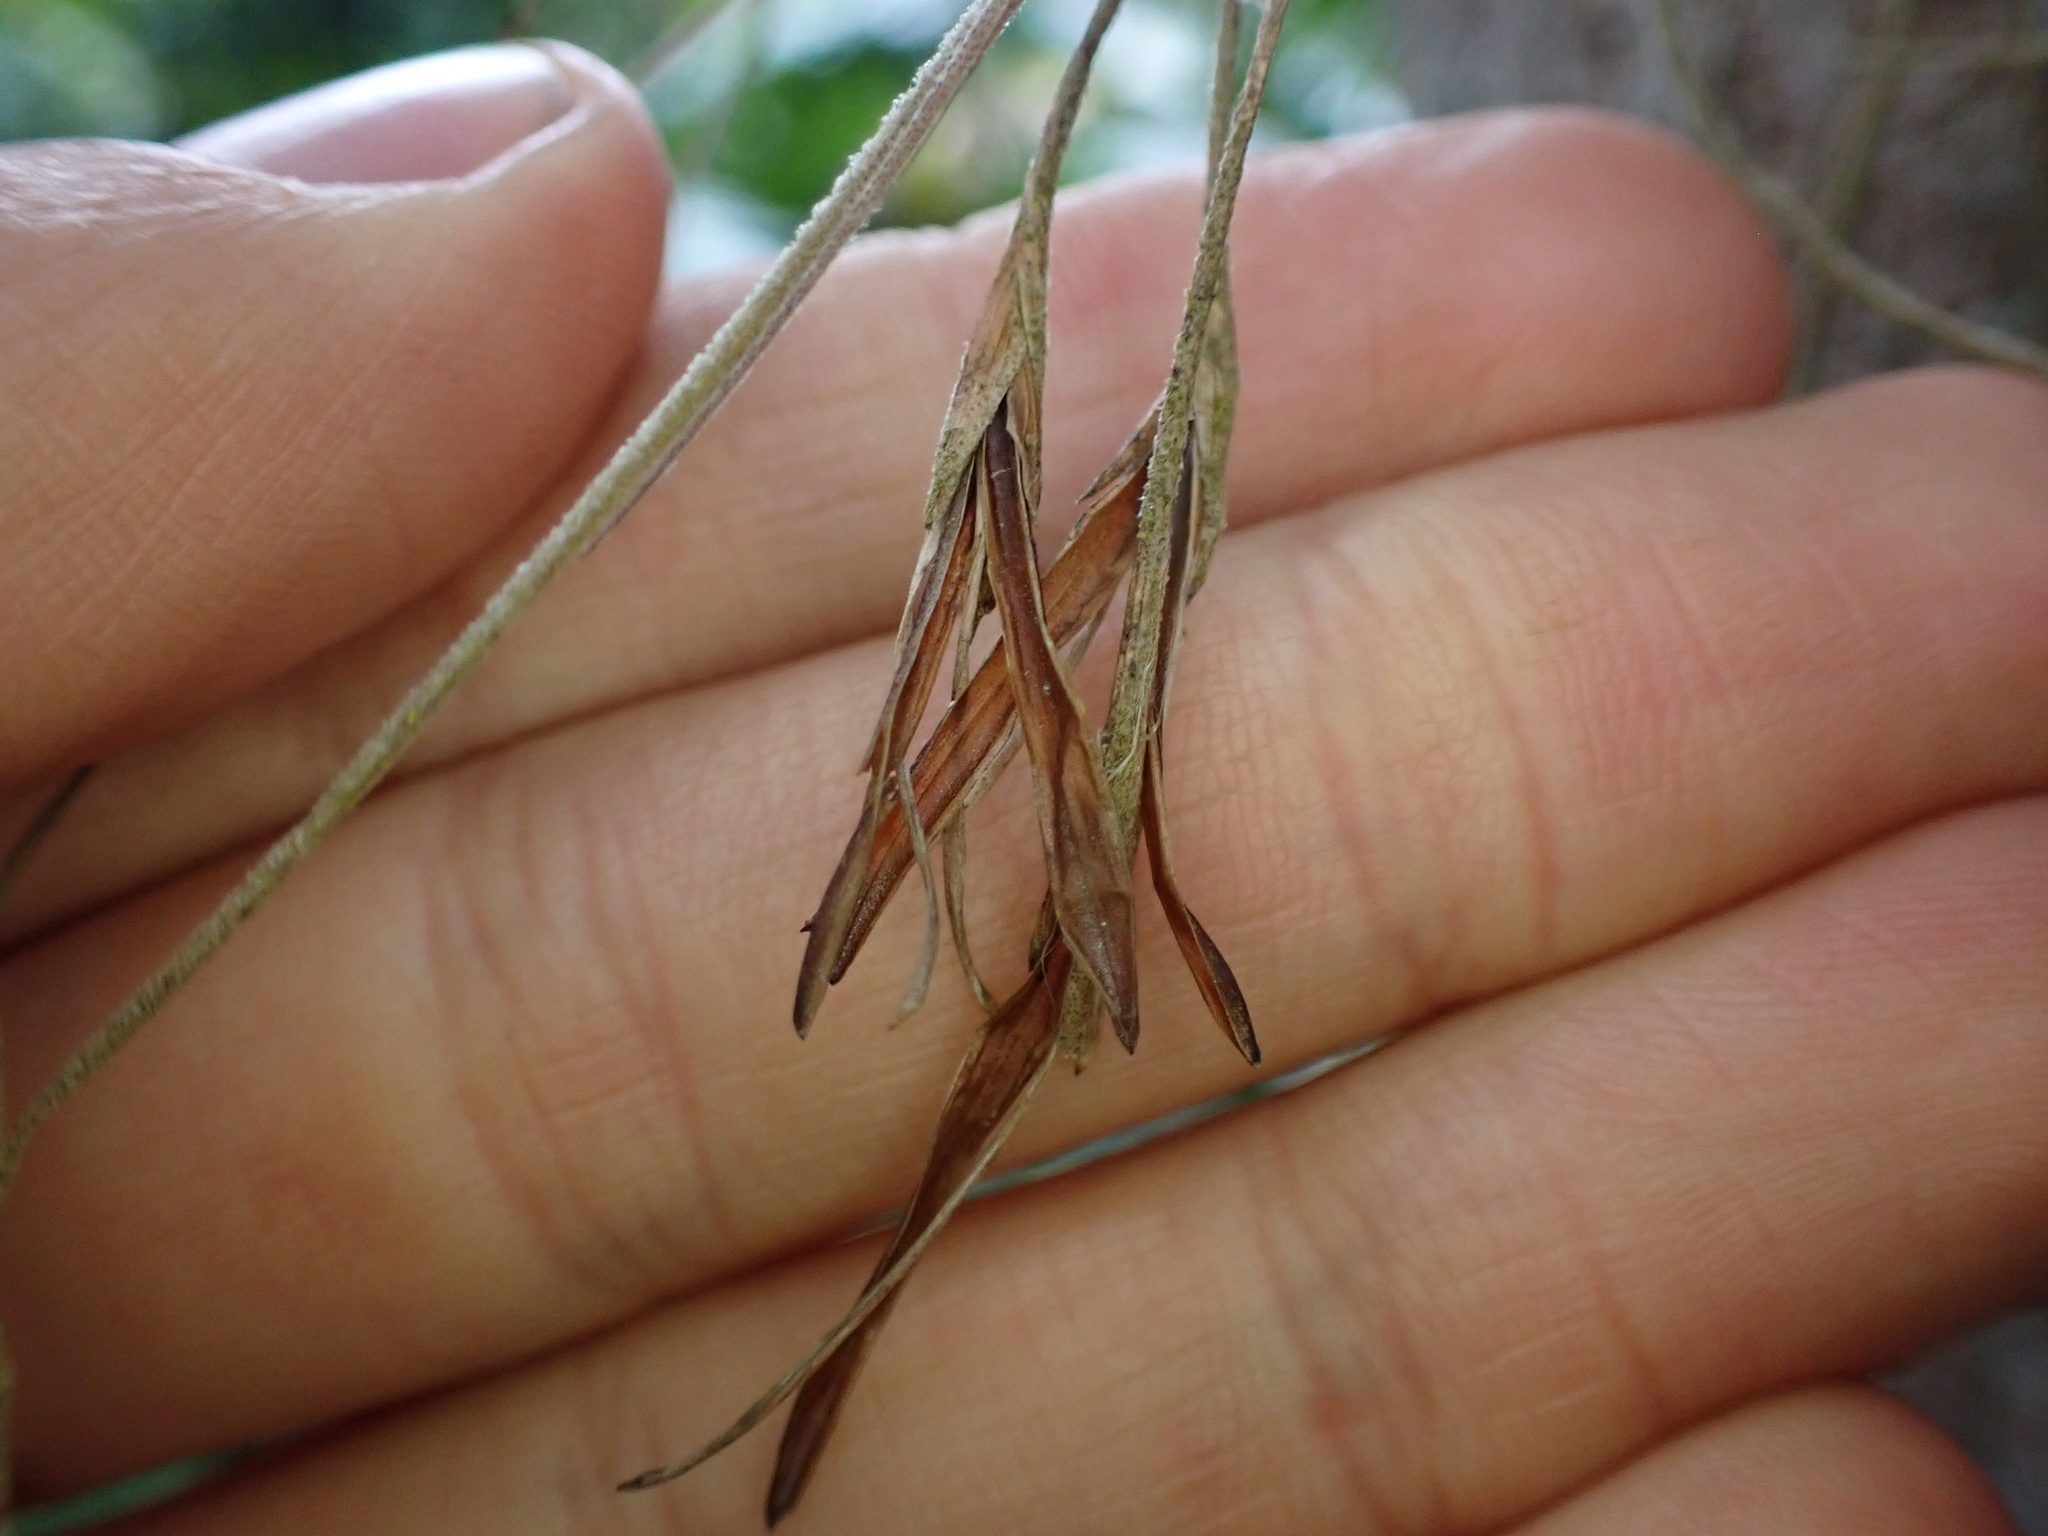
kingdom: Plantae
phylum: Tracheophyta
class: Liliopsida
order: Poales
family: Bromeliaceae
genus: Tillandsia
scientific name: Tillandsia recurvata
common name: Small ballmoss
